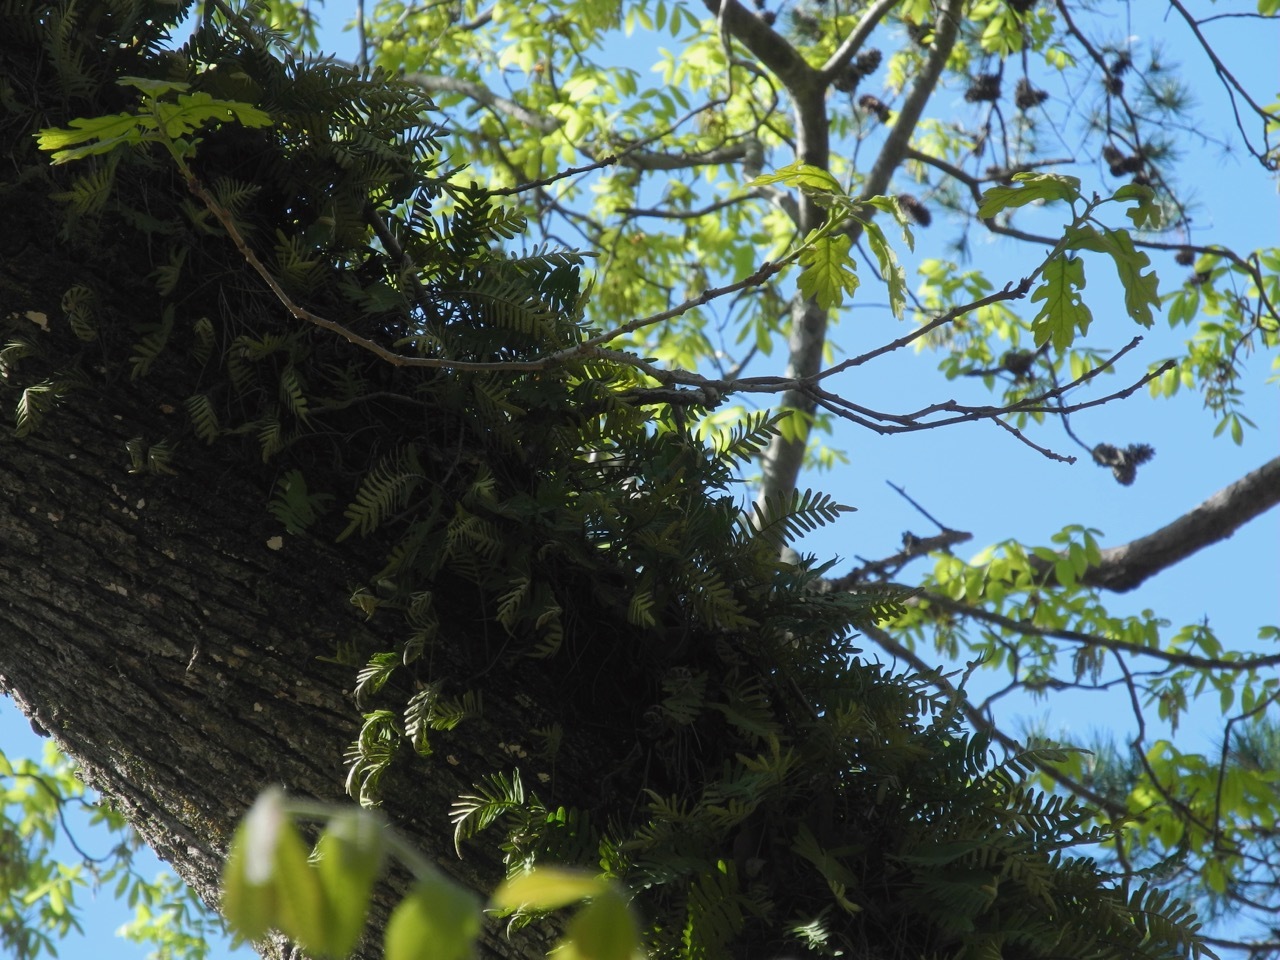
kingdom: Plantae
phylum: Tracheophyta
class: Polypodiopsida
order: Polypodiales
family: Polypodiaceae
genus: Pleopeltis
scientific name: Pleopeltis michauxiana
